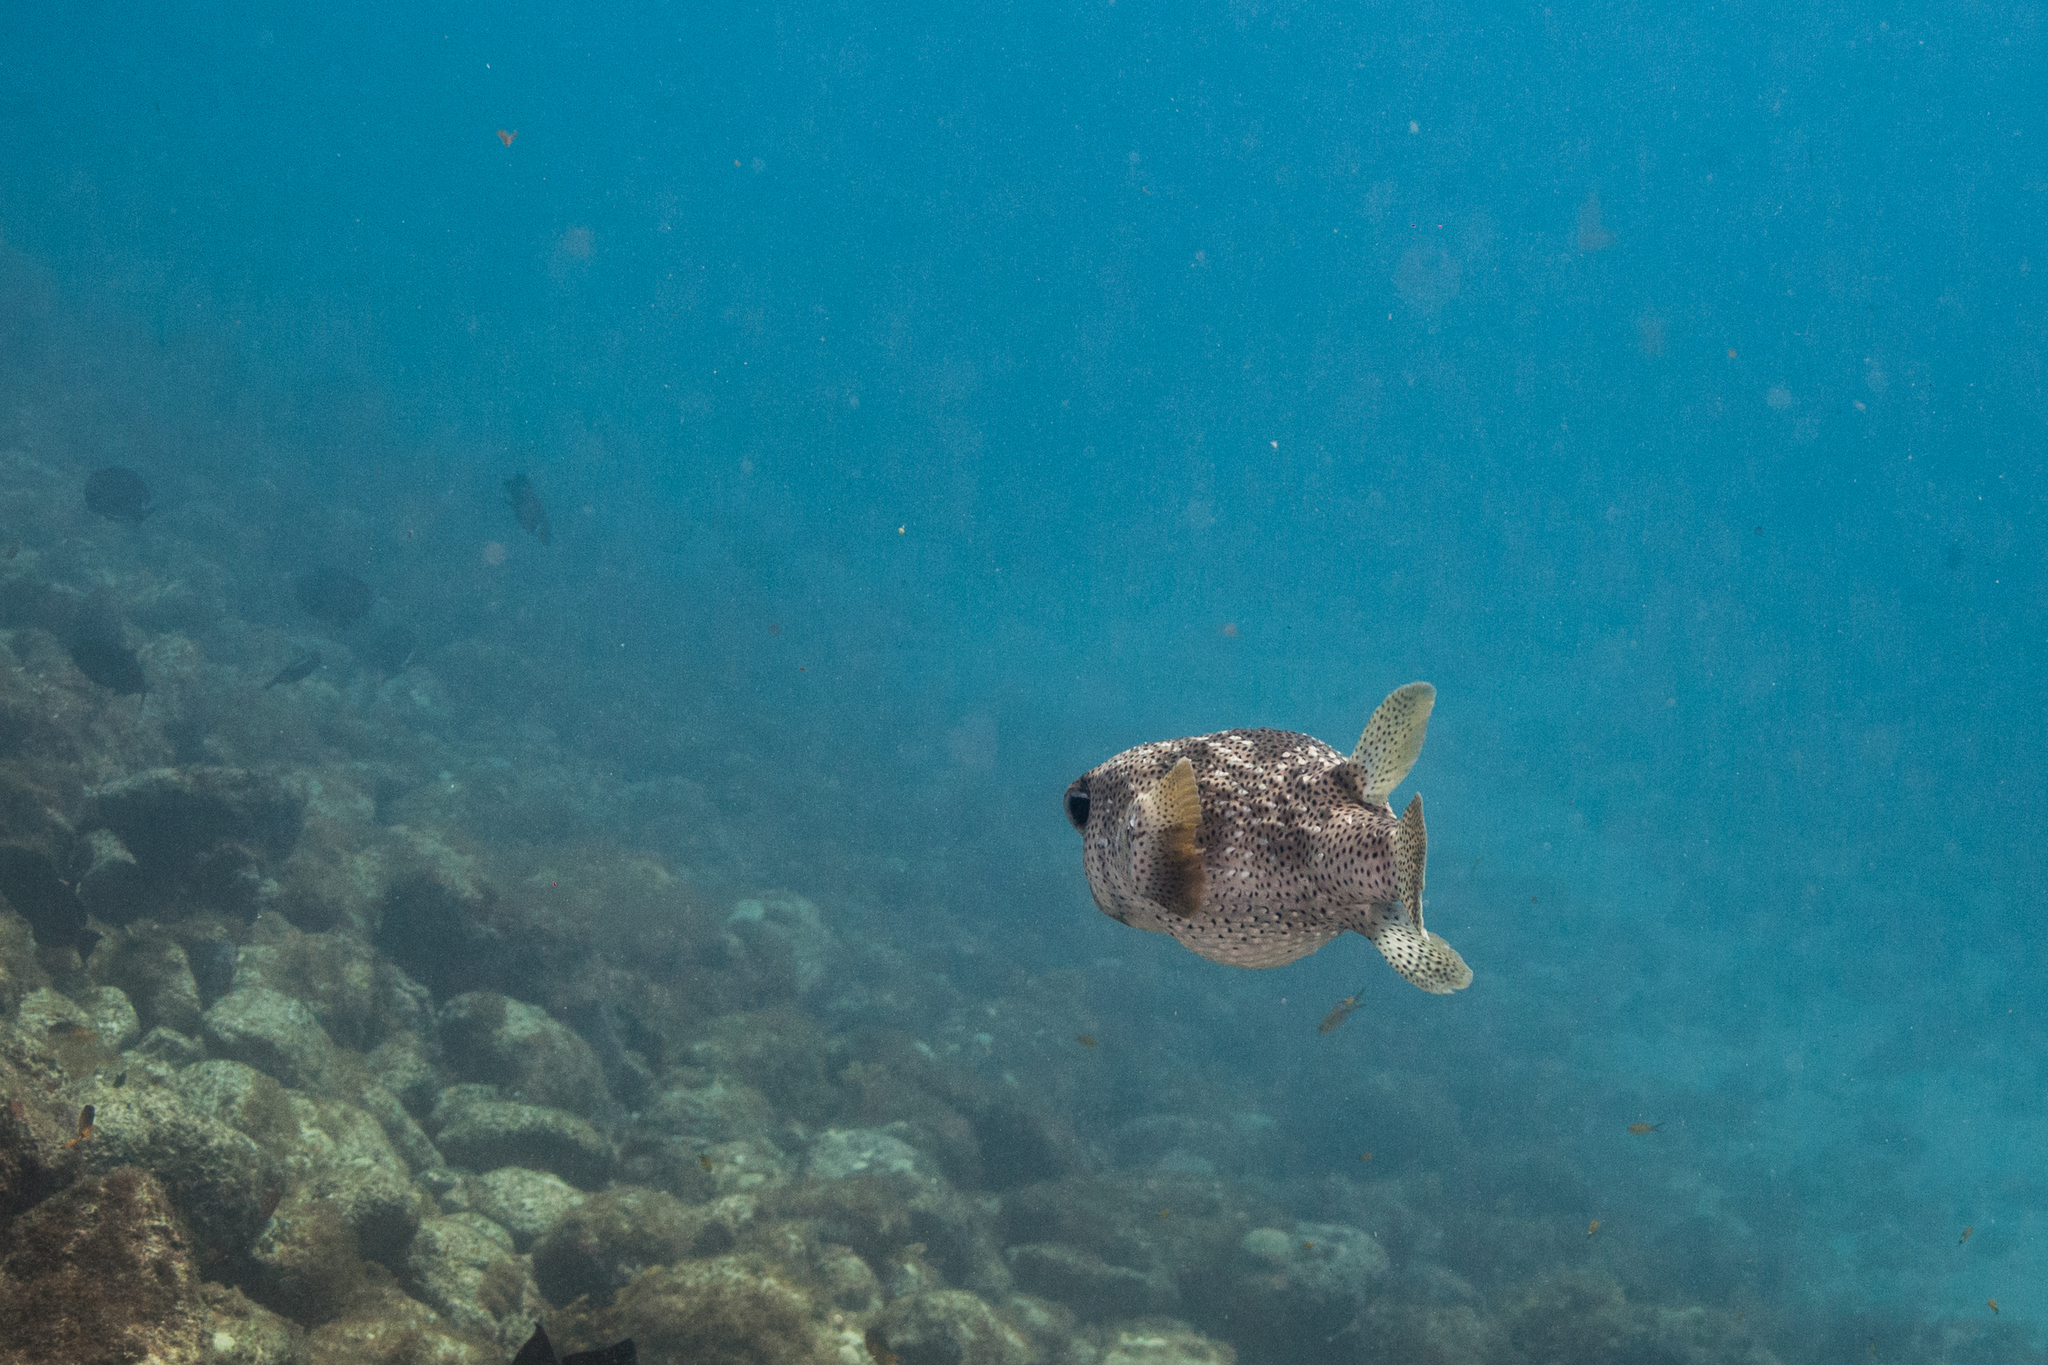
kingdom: Animalia
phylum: Chordata
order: Tetraodontiformes
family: Diodontidae
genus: Diodon
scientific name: Diodon hystrix
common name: Giant porcupinefish
